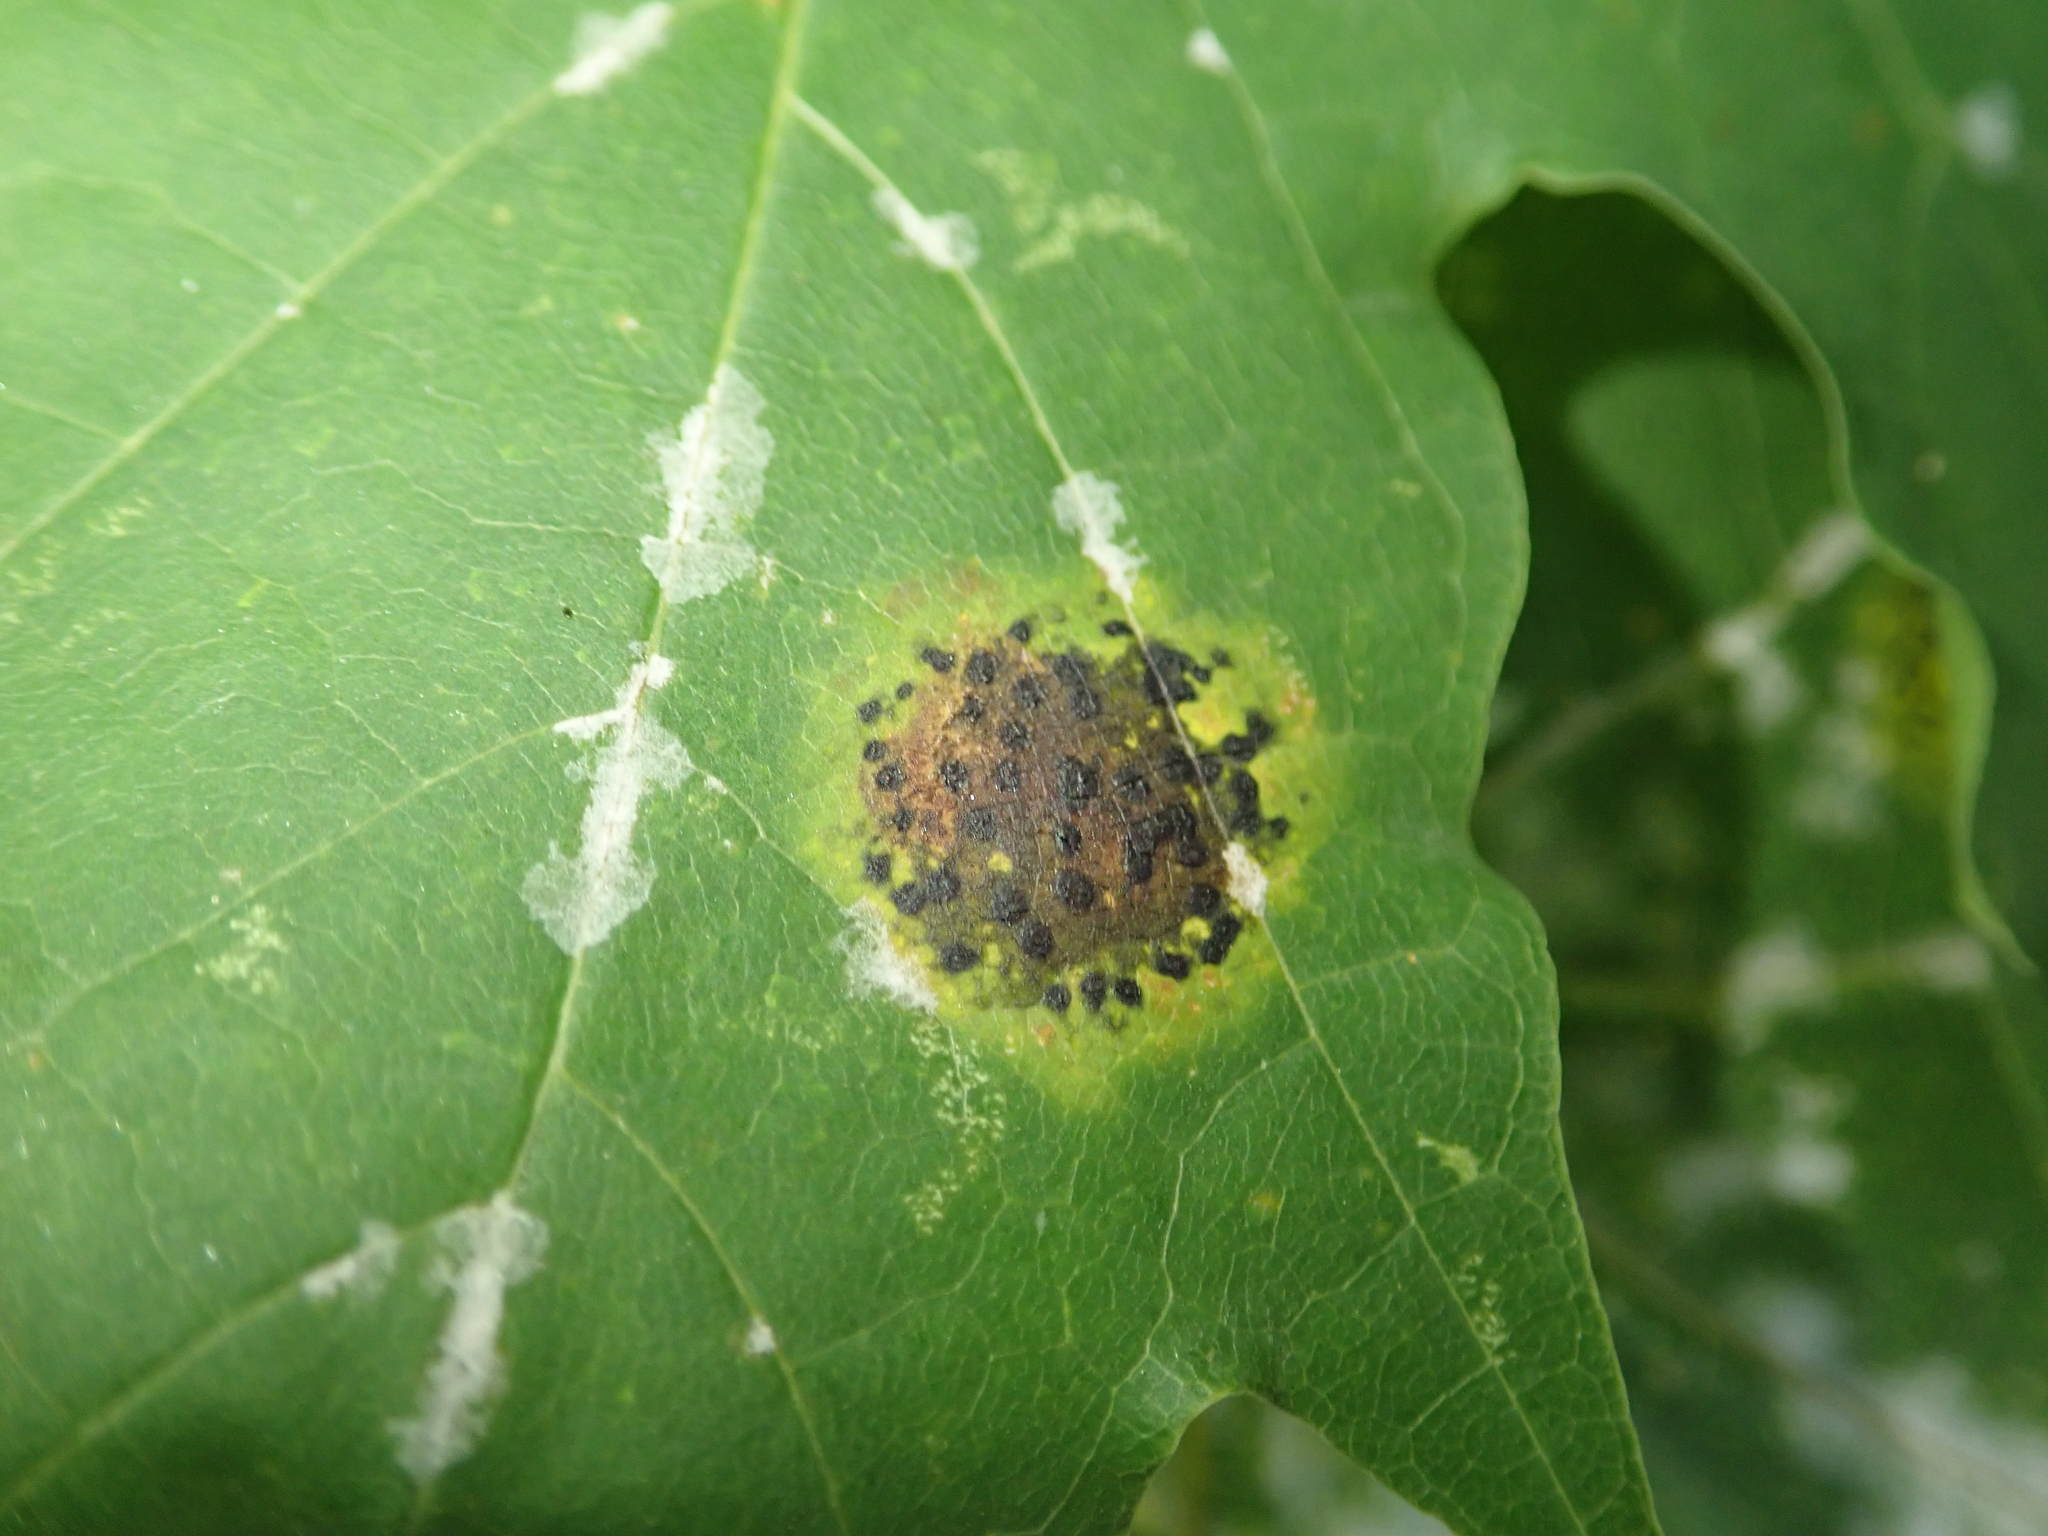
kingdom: Fungi
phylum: Ascomycota
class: Leotiomycetes
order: Rhytismatales
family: Rhytismataceae
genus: Rhytisma
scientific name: Rhytisma acerinum
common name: European tar spot
